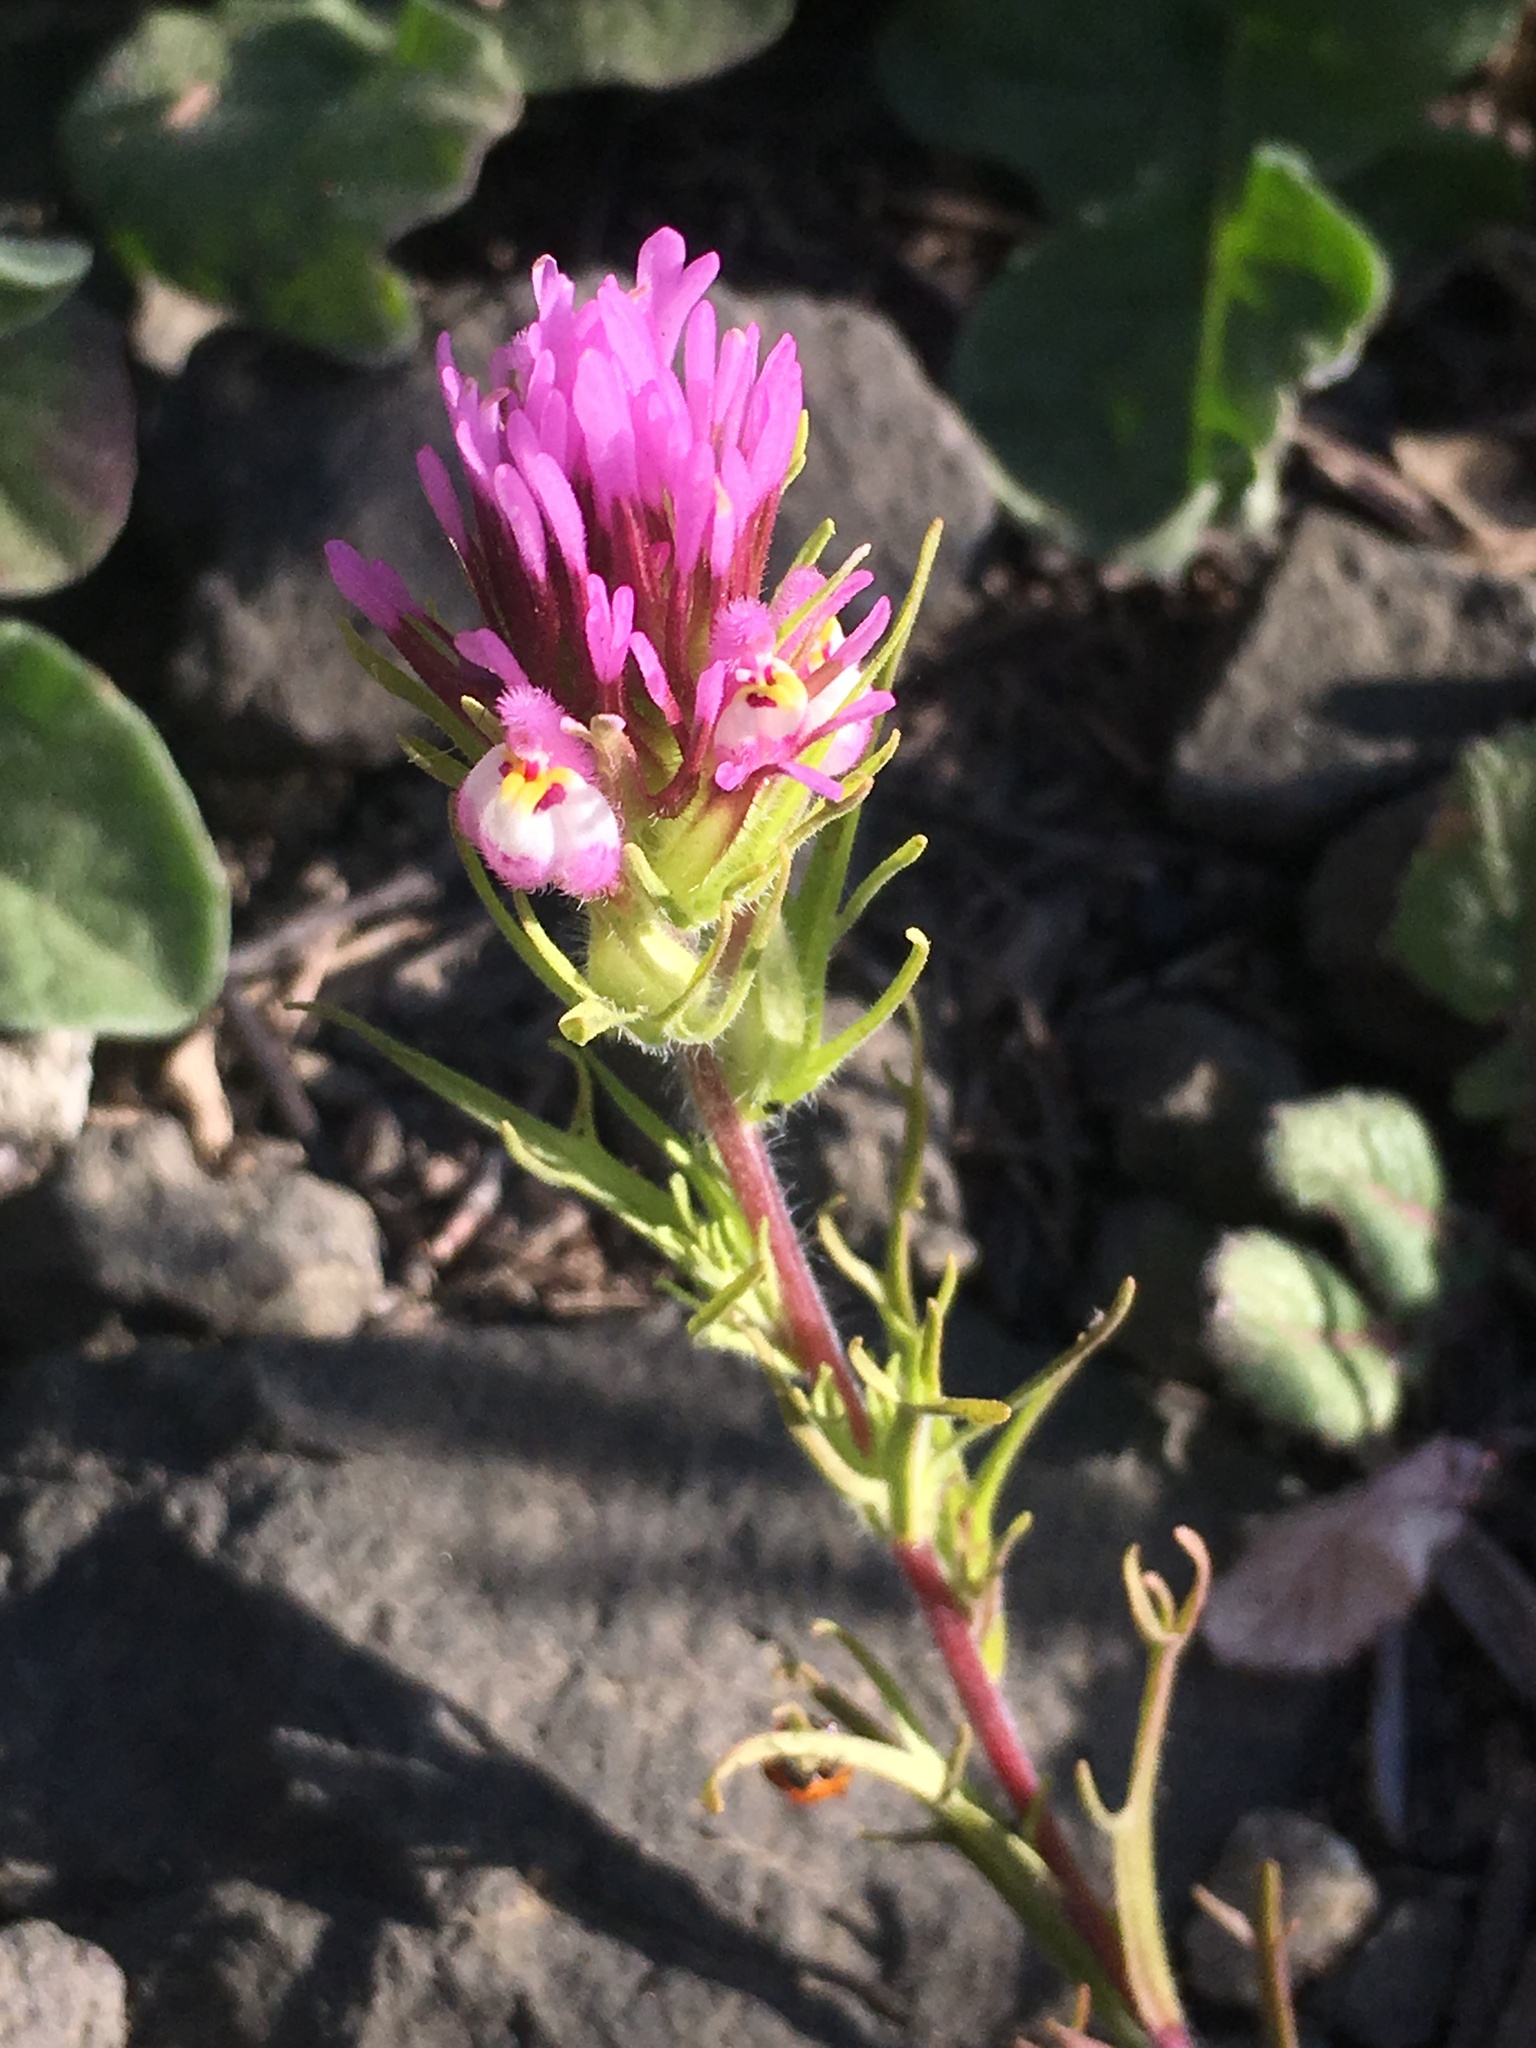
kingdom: Plantae
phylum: Tracheophyta
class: Magnoliopsida
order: Lamiales
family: Orobanchaceae
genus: Castilleja
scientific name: Castilleja exserta
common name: Purple owl-clover
